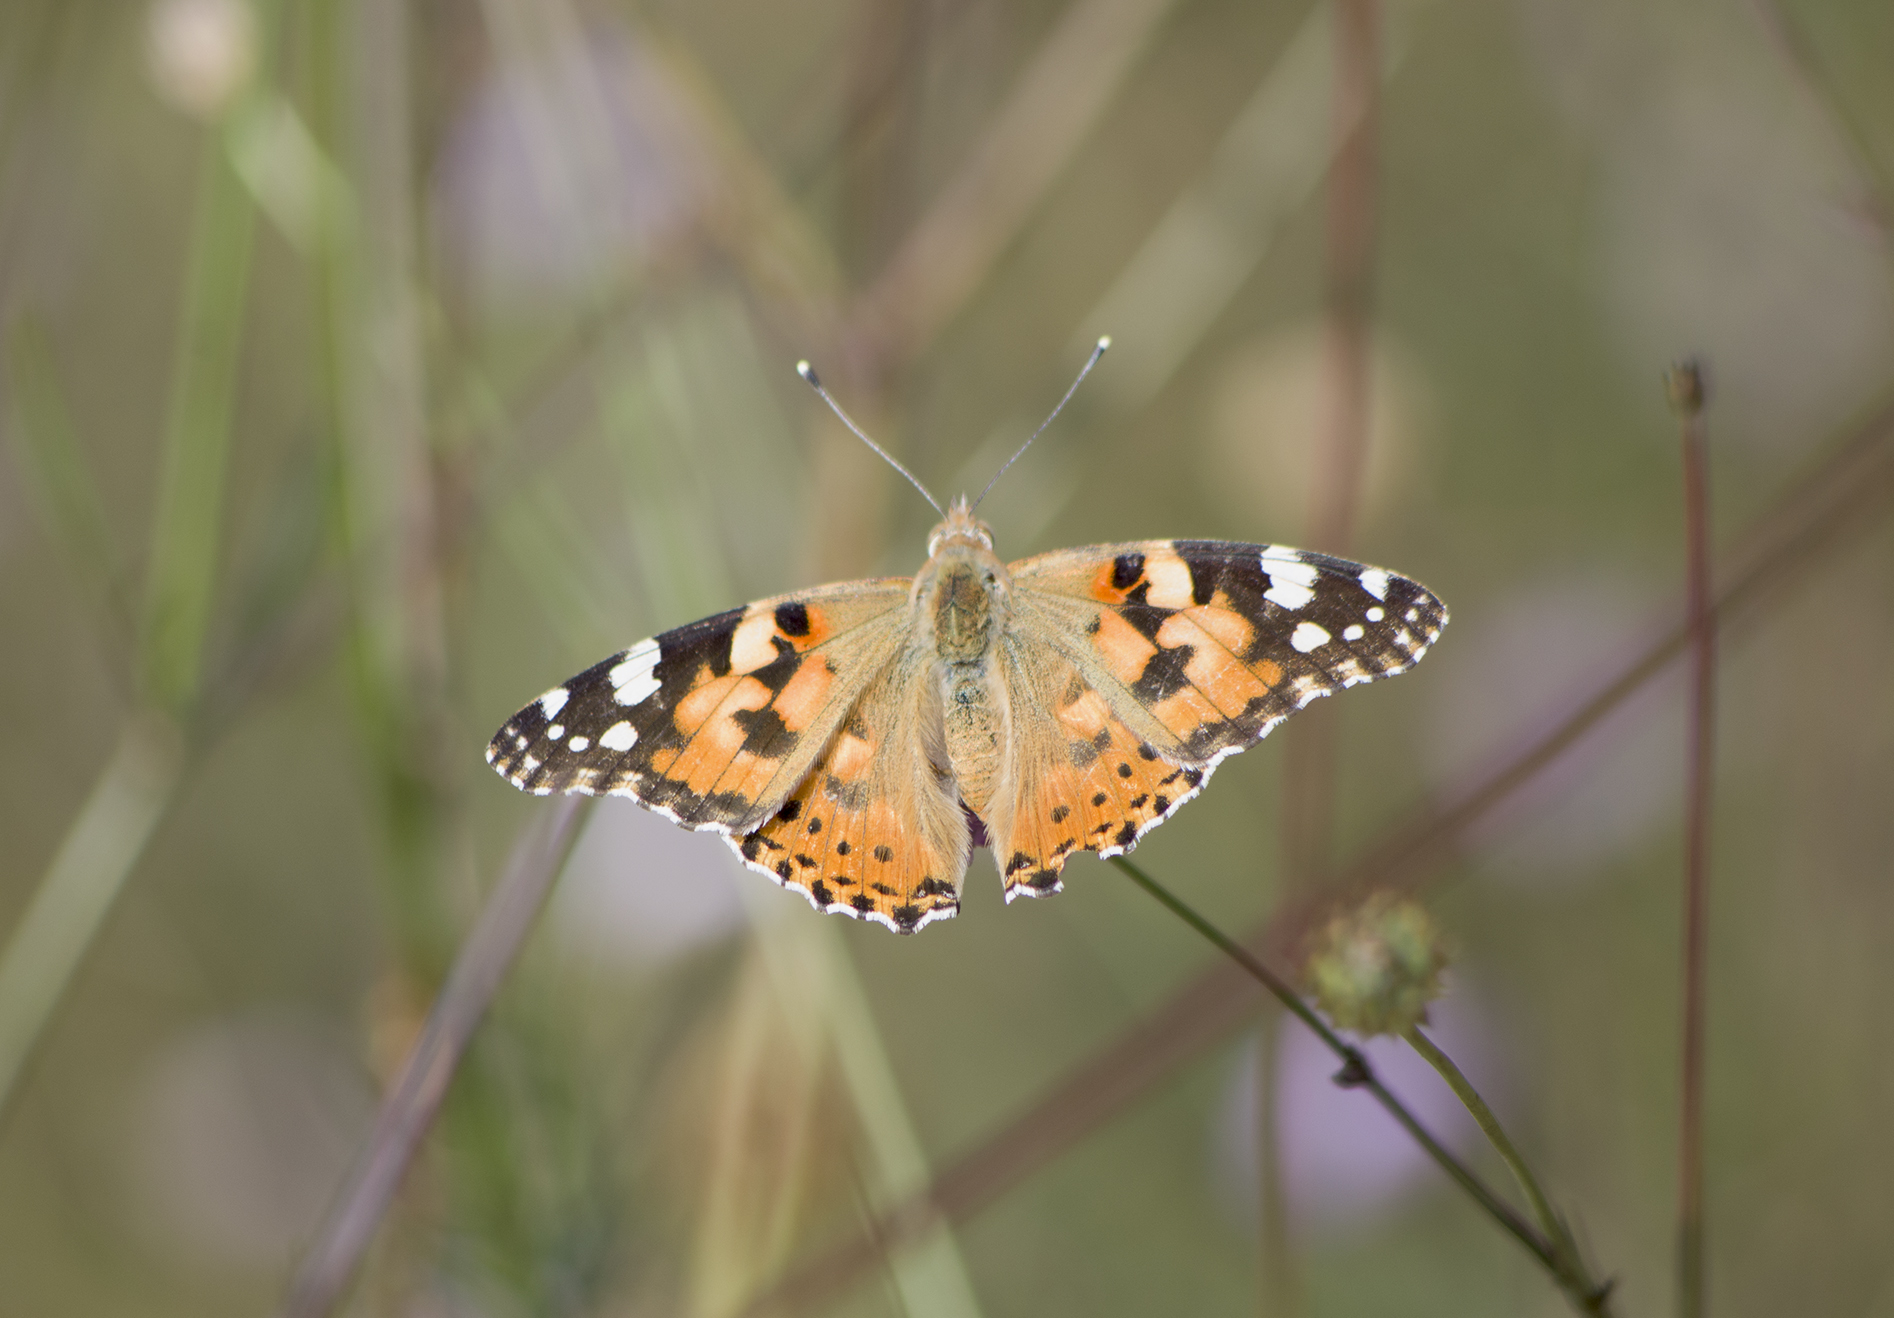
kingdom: Animalia
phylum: Arthropoda
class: Insecta
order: Lepidoptera
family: Nymphalidae
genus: Vanessa
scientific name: Vanessa cardui
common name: Painted lady
